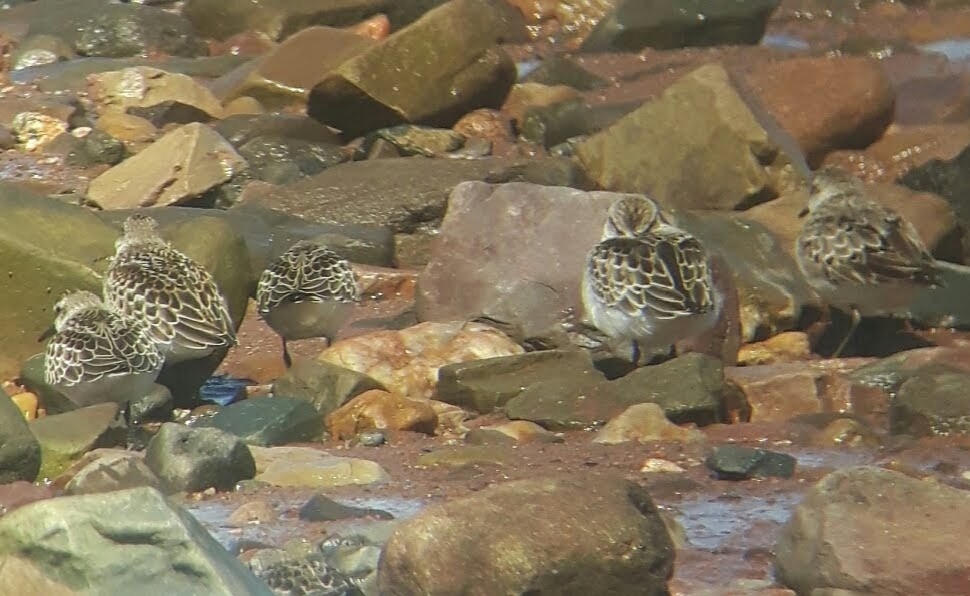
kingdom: Animalia
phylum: Chordata
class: Aves
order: Charadriiformes
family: Scolopacidae
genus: Calidris
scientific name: Calidris pusilla
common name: Semipalmated sandpiper
